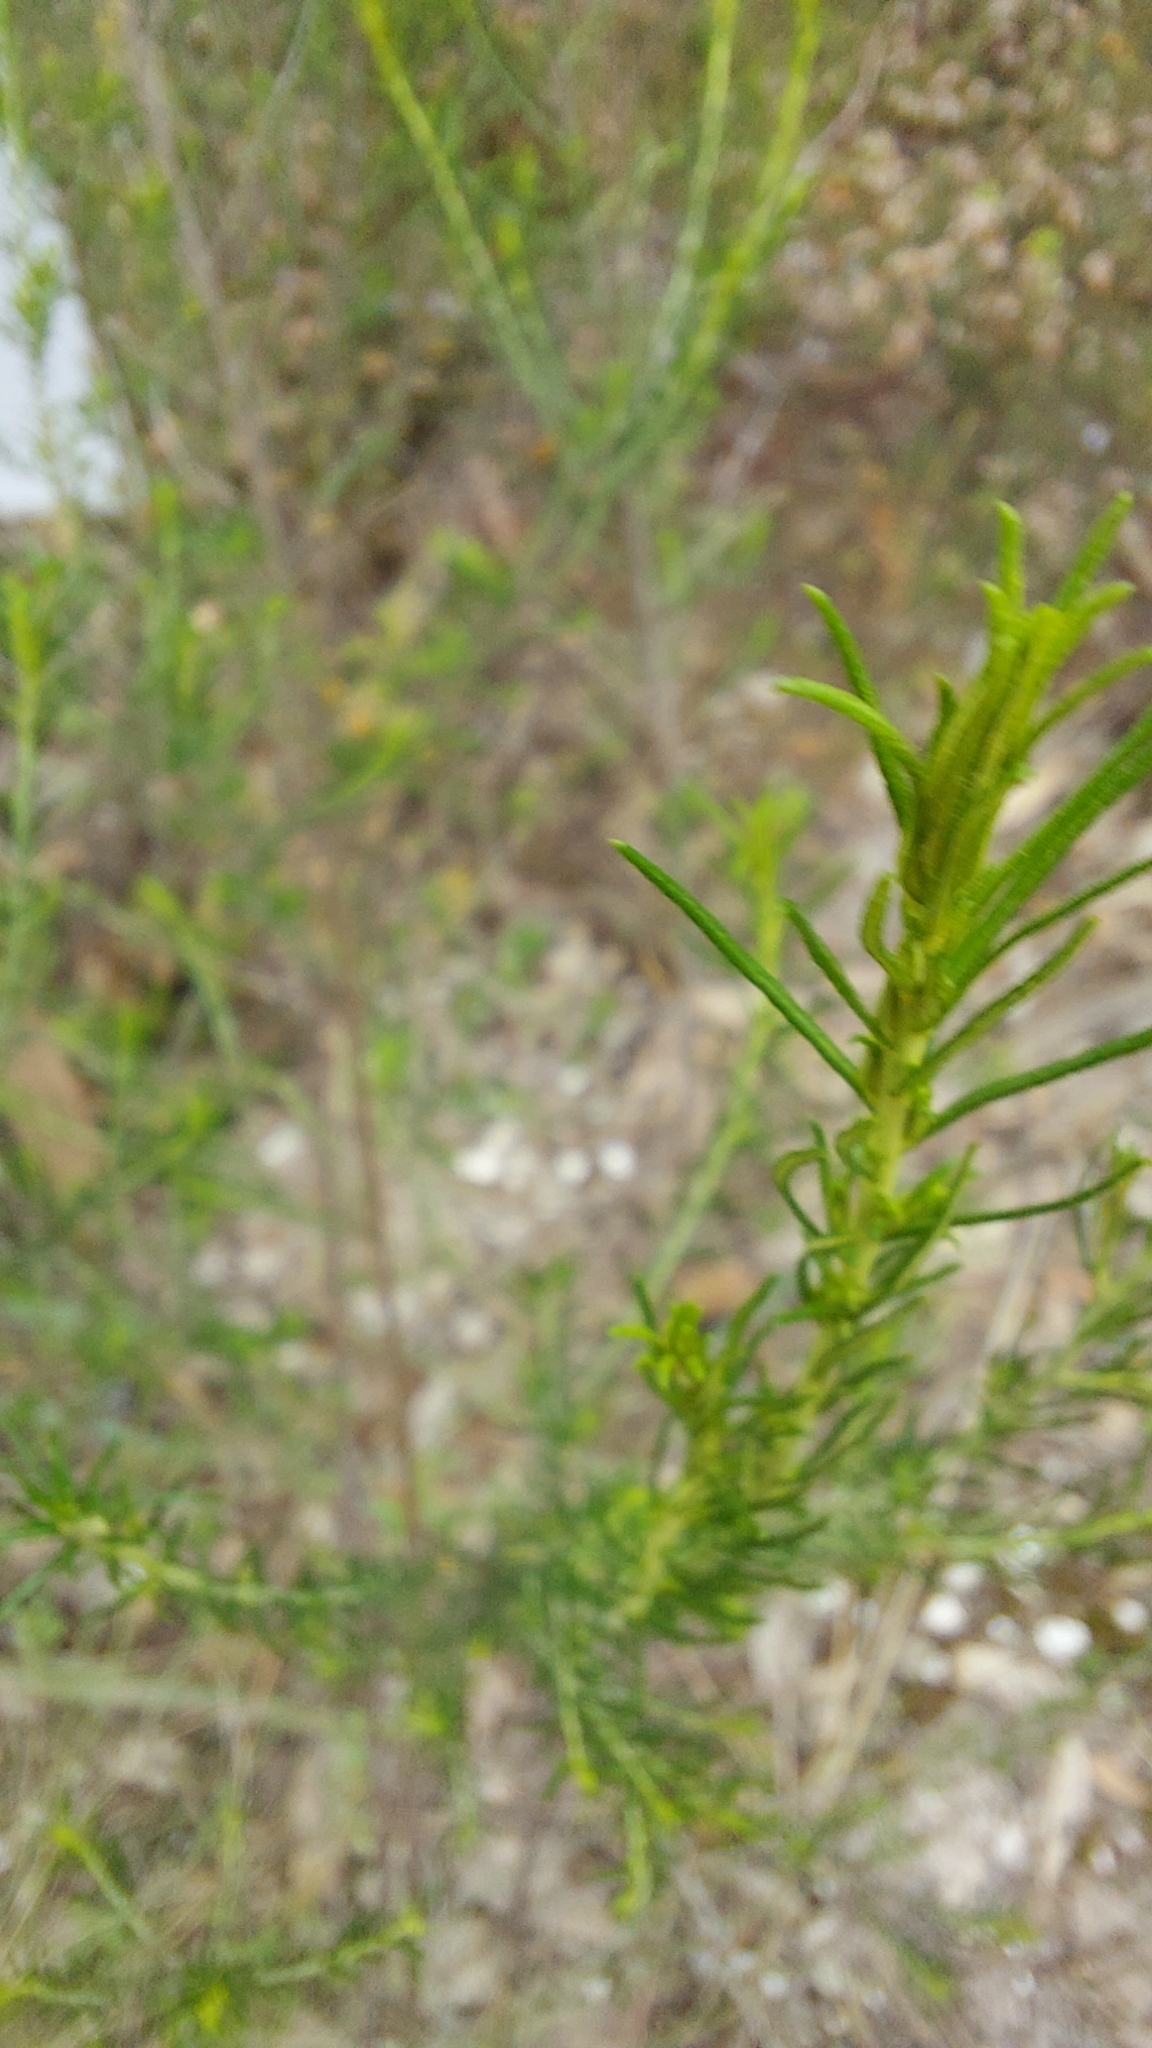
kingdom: Plantae
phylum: Tracheophyta
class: Magnoliopsida
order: Asterales
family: Asteraceae
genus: Cassinia
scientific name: Cassinia sifton
